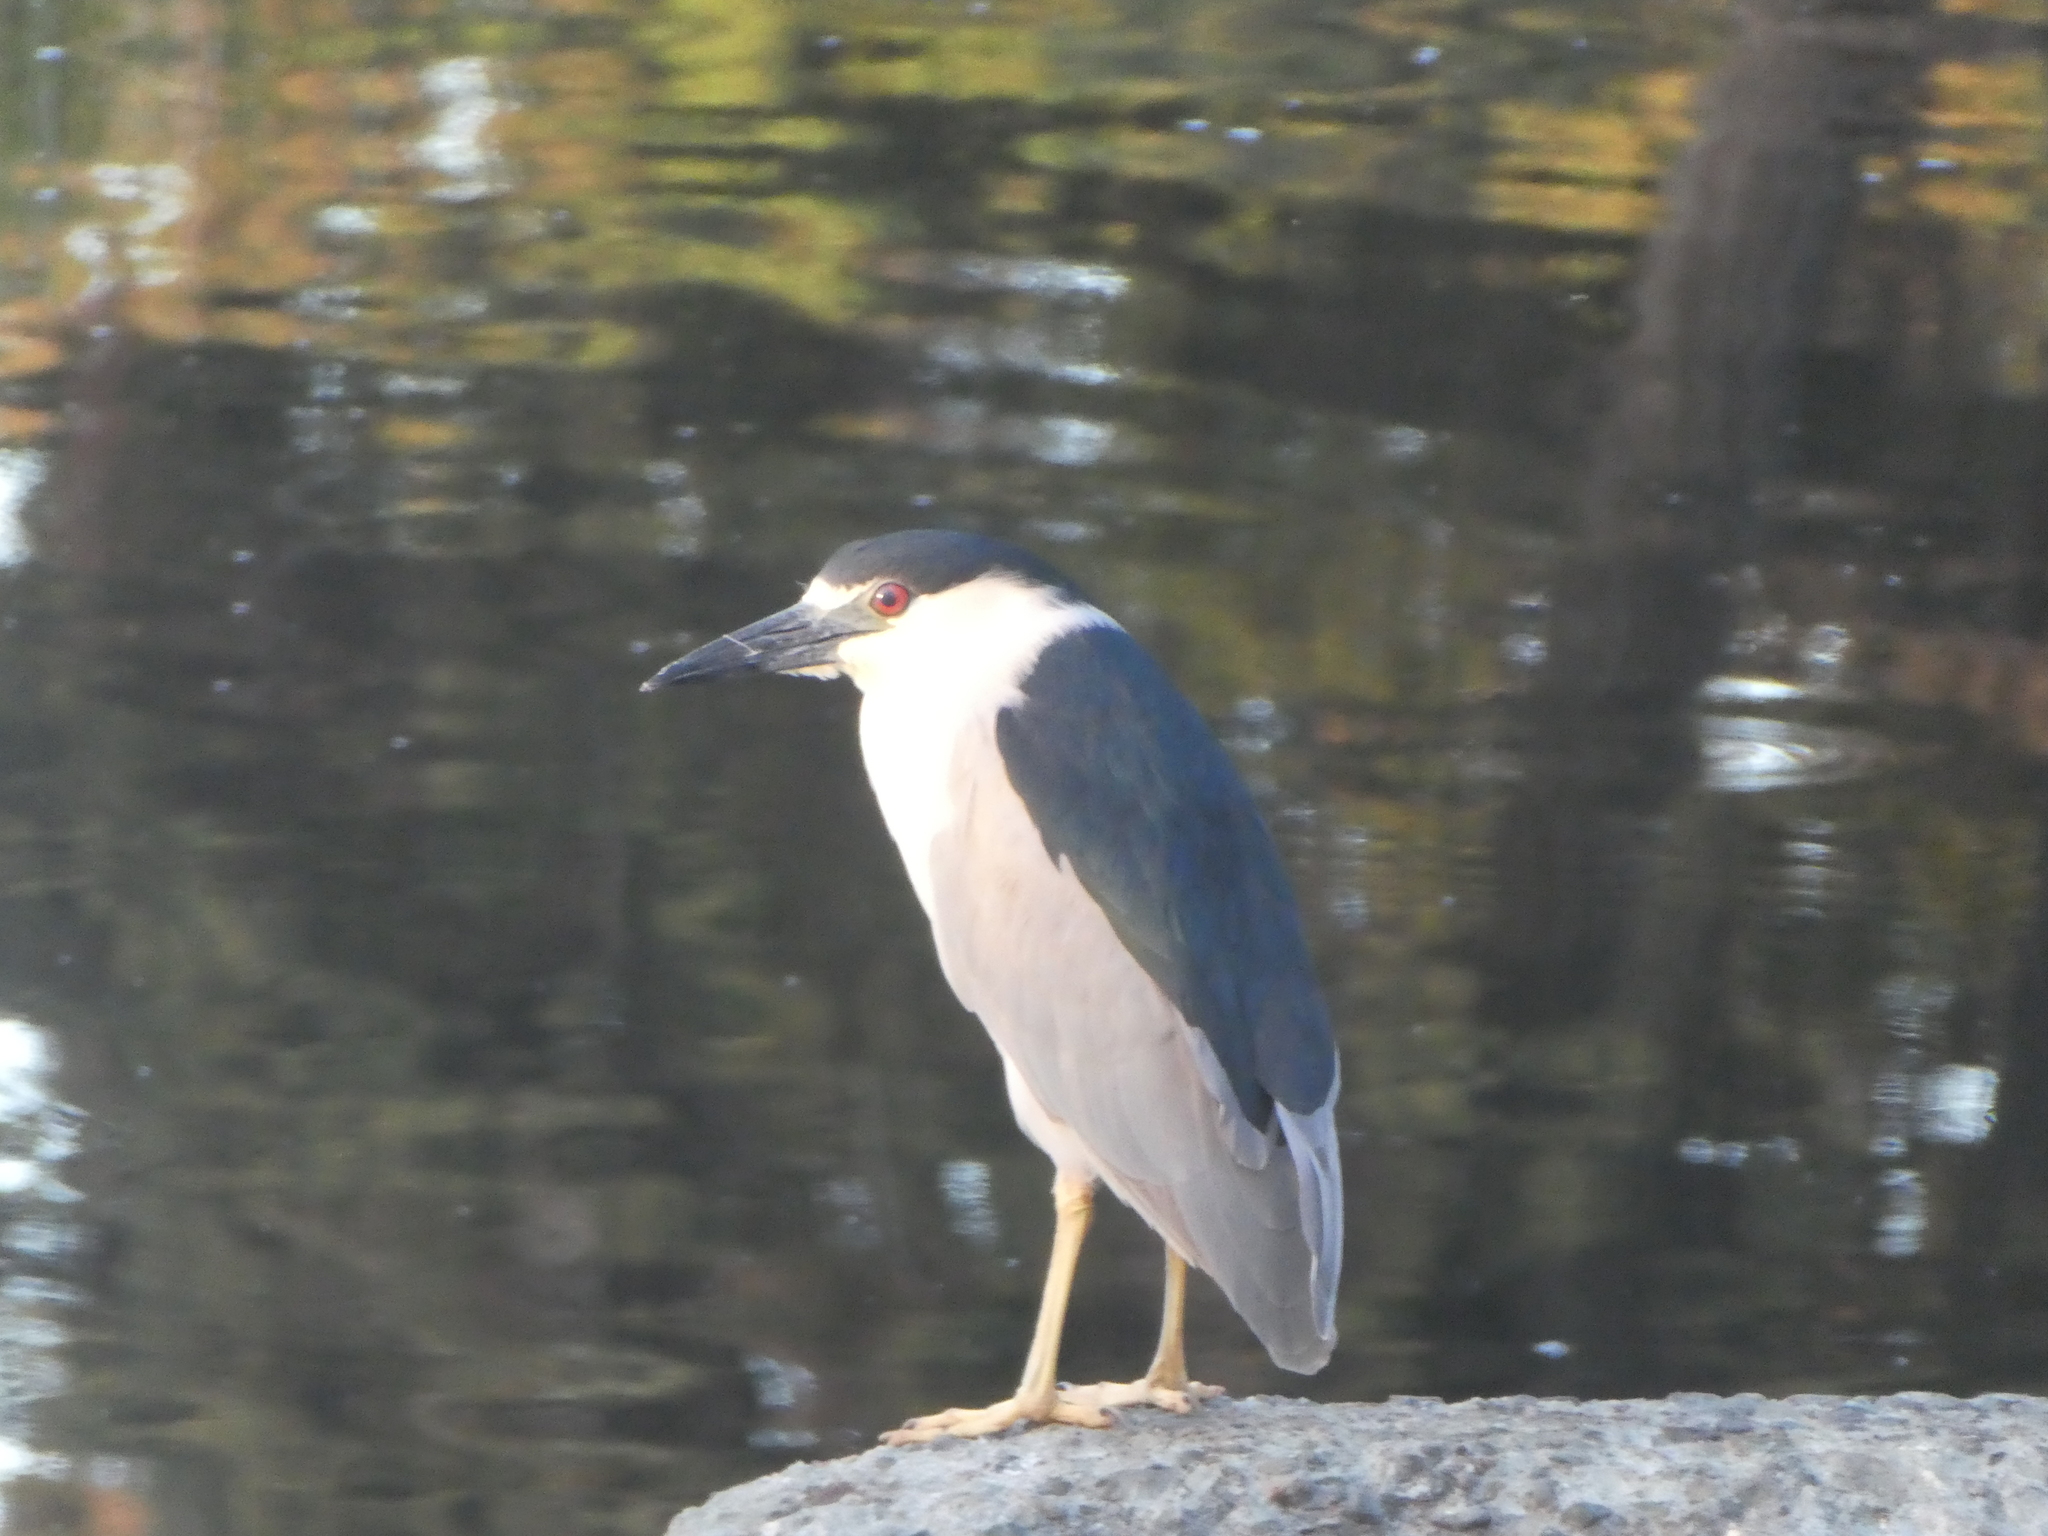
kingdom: Animalia
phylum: Chordata
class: Aves
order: Pelecaniformes
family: Ardeidae
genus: Nycticorax
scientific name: Nycticorax nycticorax
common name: Black-crowned night heron
